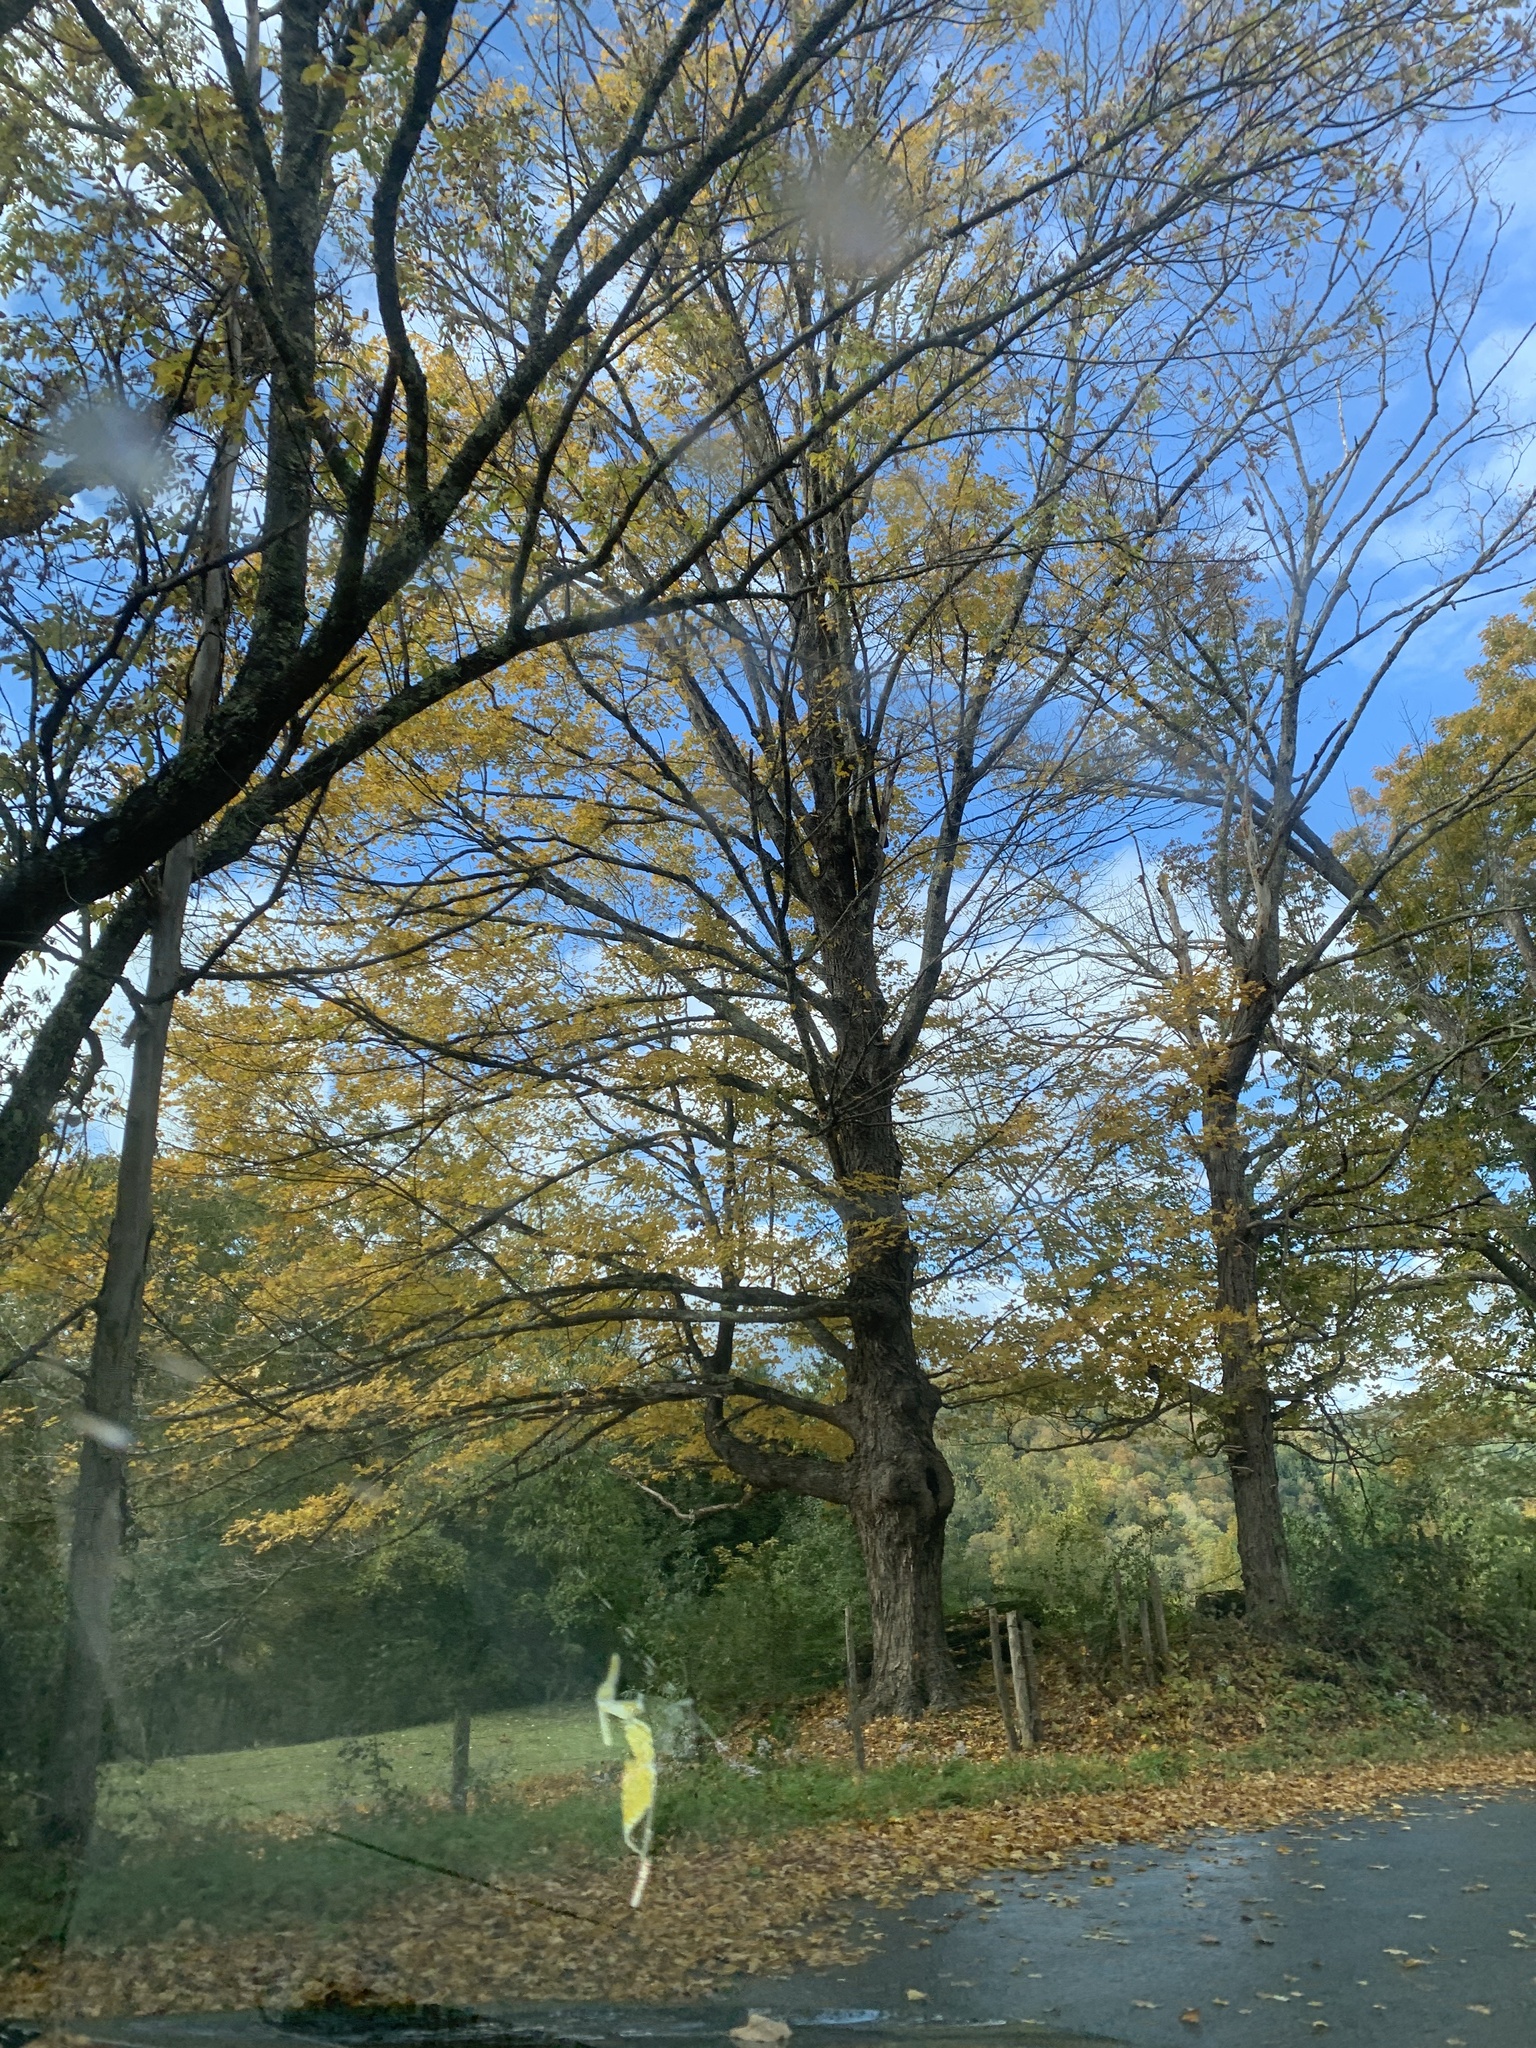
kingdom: Plantae
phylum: Tracheophyta
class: Magnoliopsida
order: Sapindales
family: Sapindaceae
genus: Acer
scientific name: Acer saccharum
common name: Sugar maple
